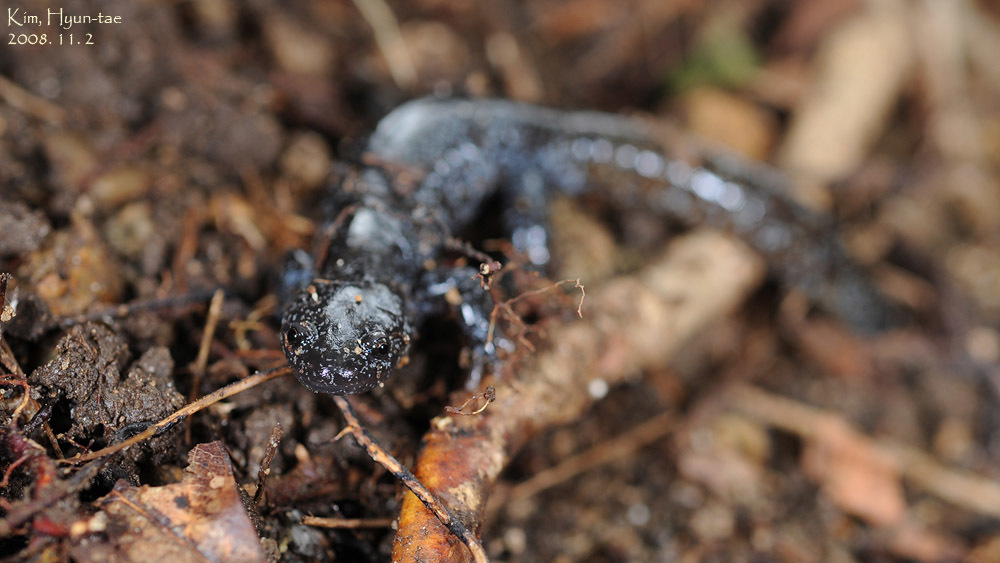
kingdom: Animalia
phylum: Chordata
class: Amphibia
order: Caudata
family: Hynobiidae
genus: Hynobius
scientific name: Hynobius leechii
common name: Gensan salamander
